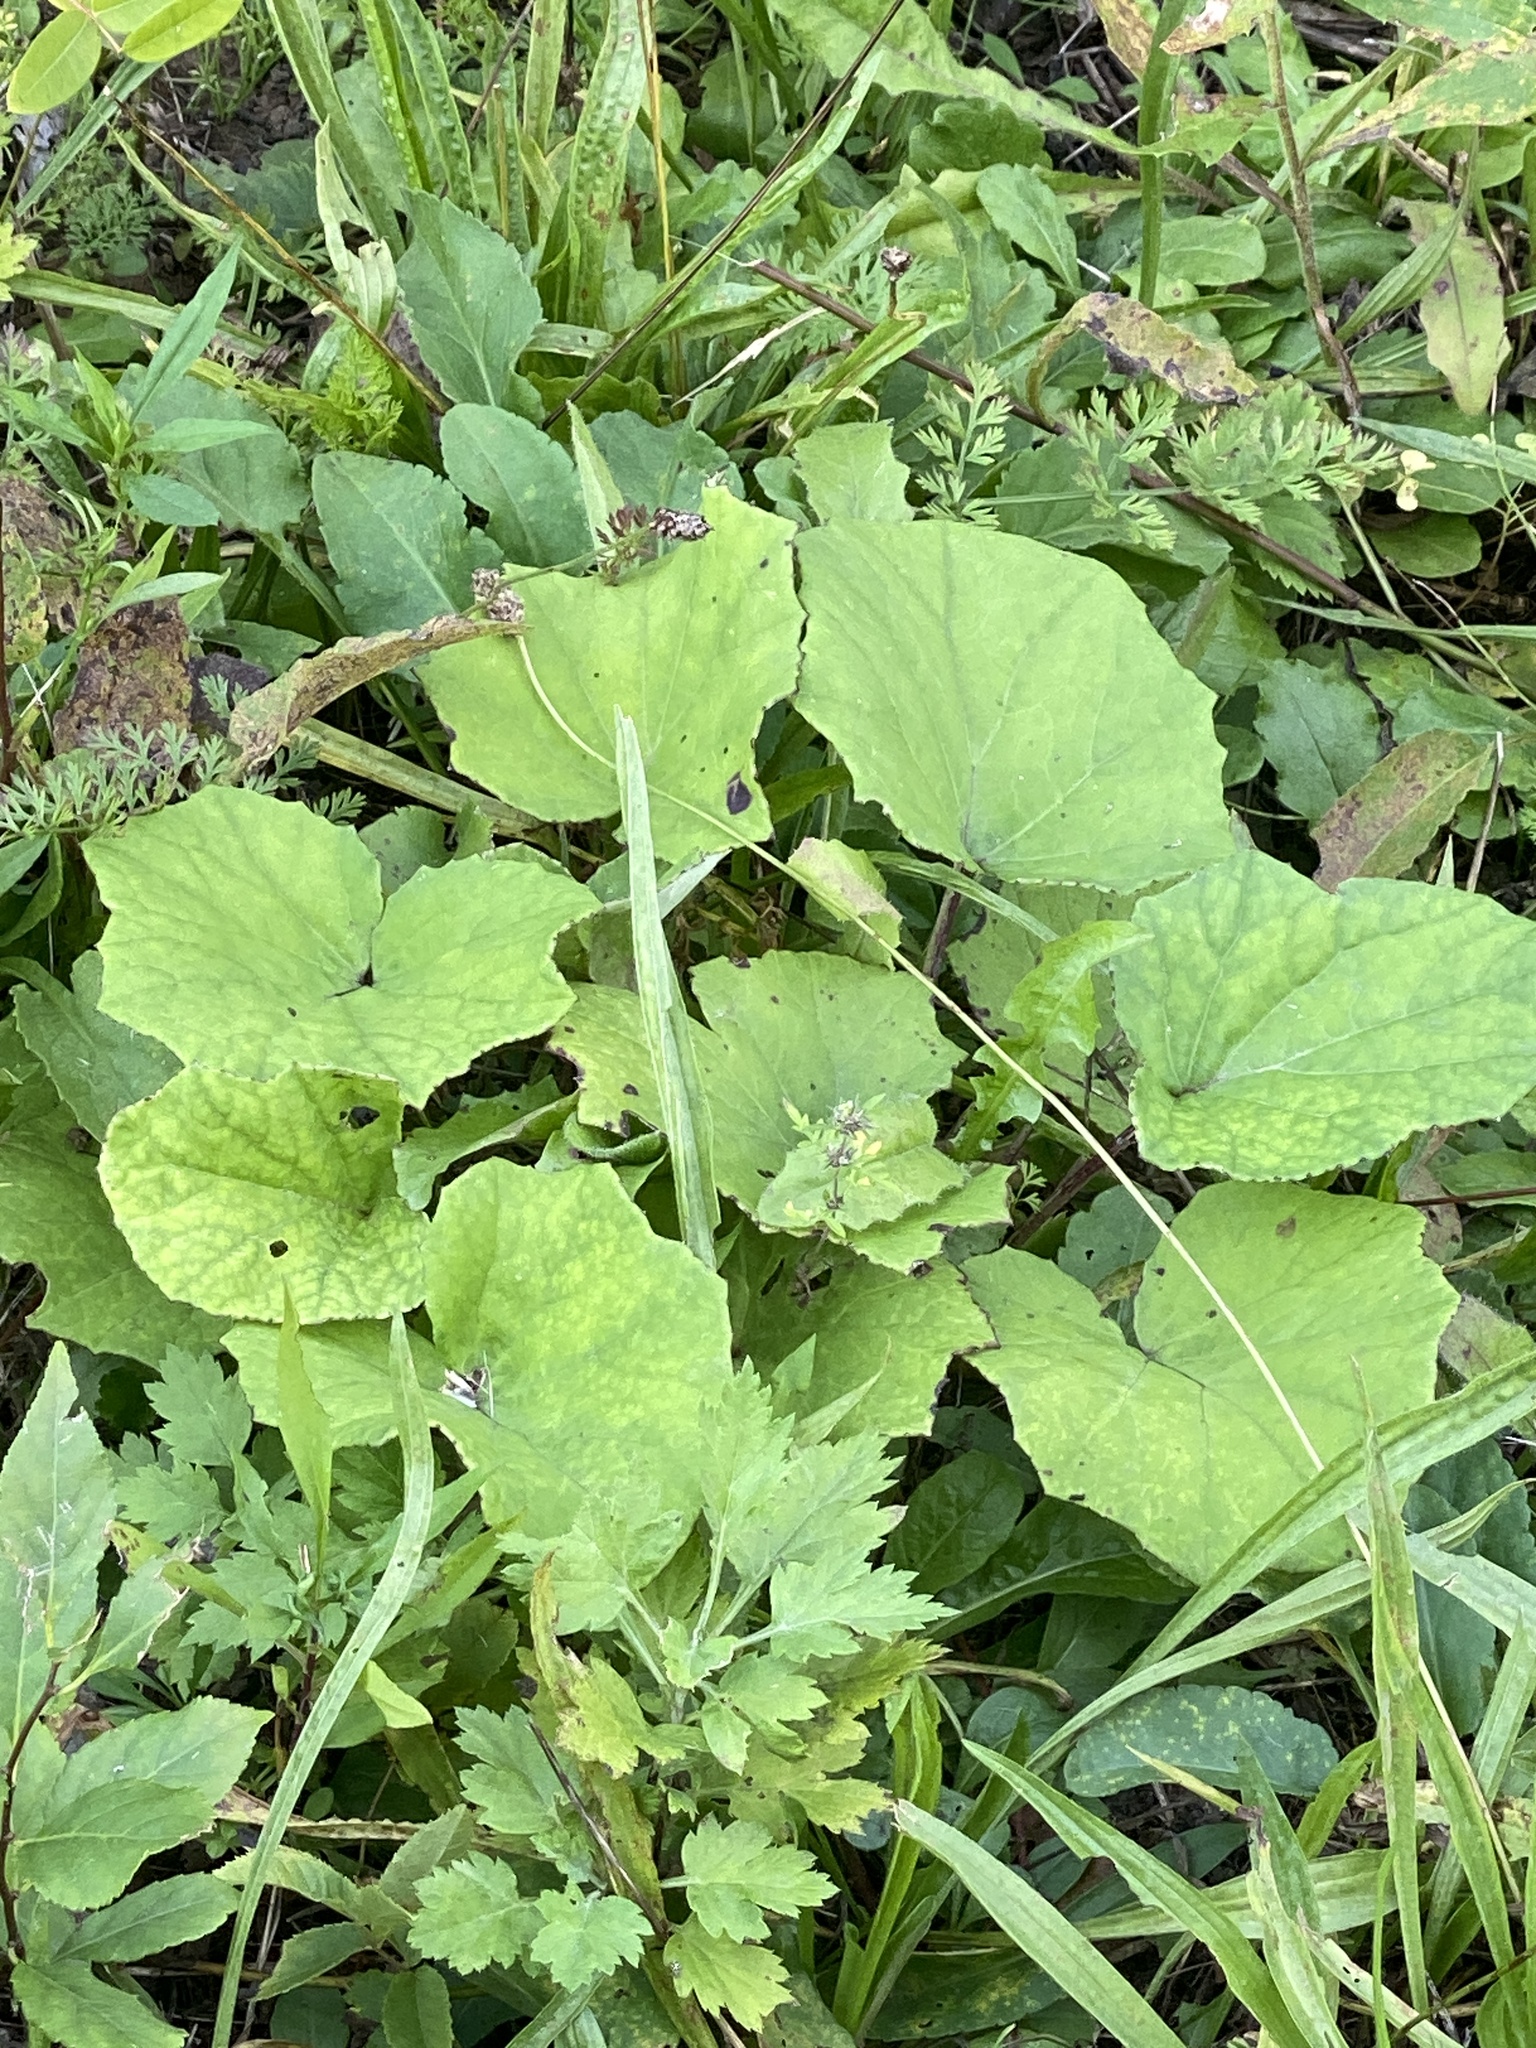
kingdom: Plantae
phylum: Tracheophyta
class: Magnoliopsida
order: Asterales
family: Asteraceae
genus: Tussilago
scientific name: Tussilago farfara
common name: Coltsfoot
